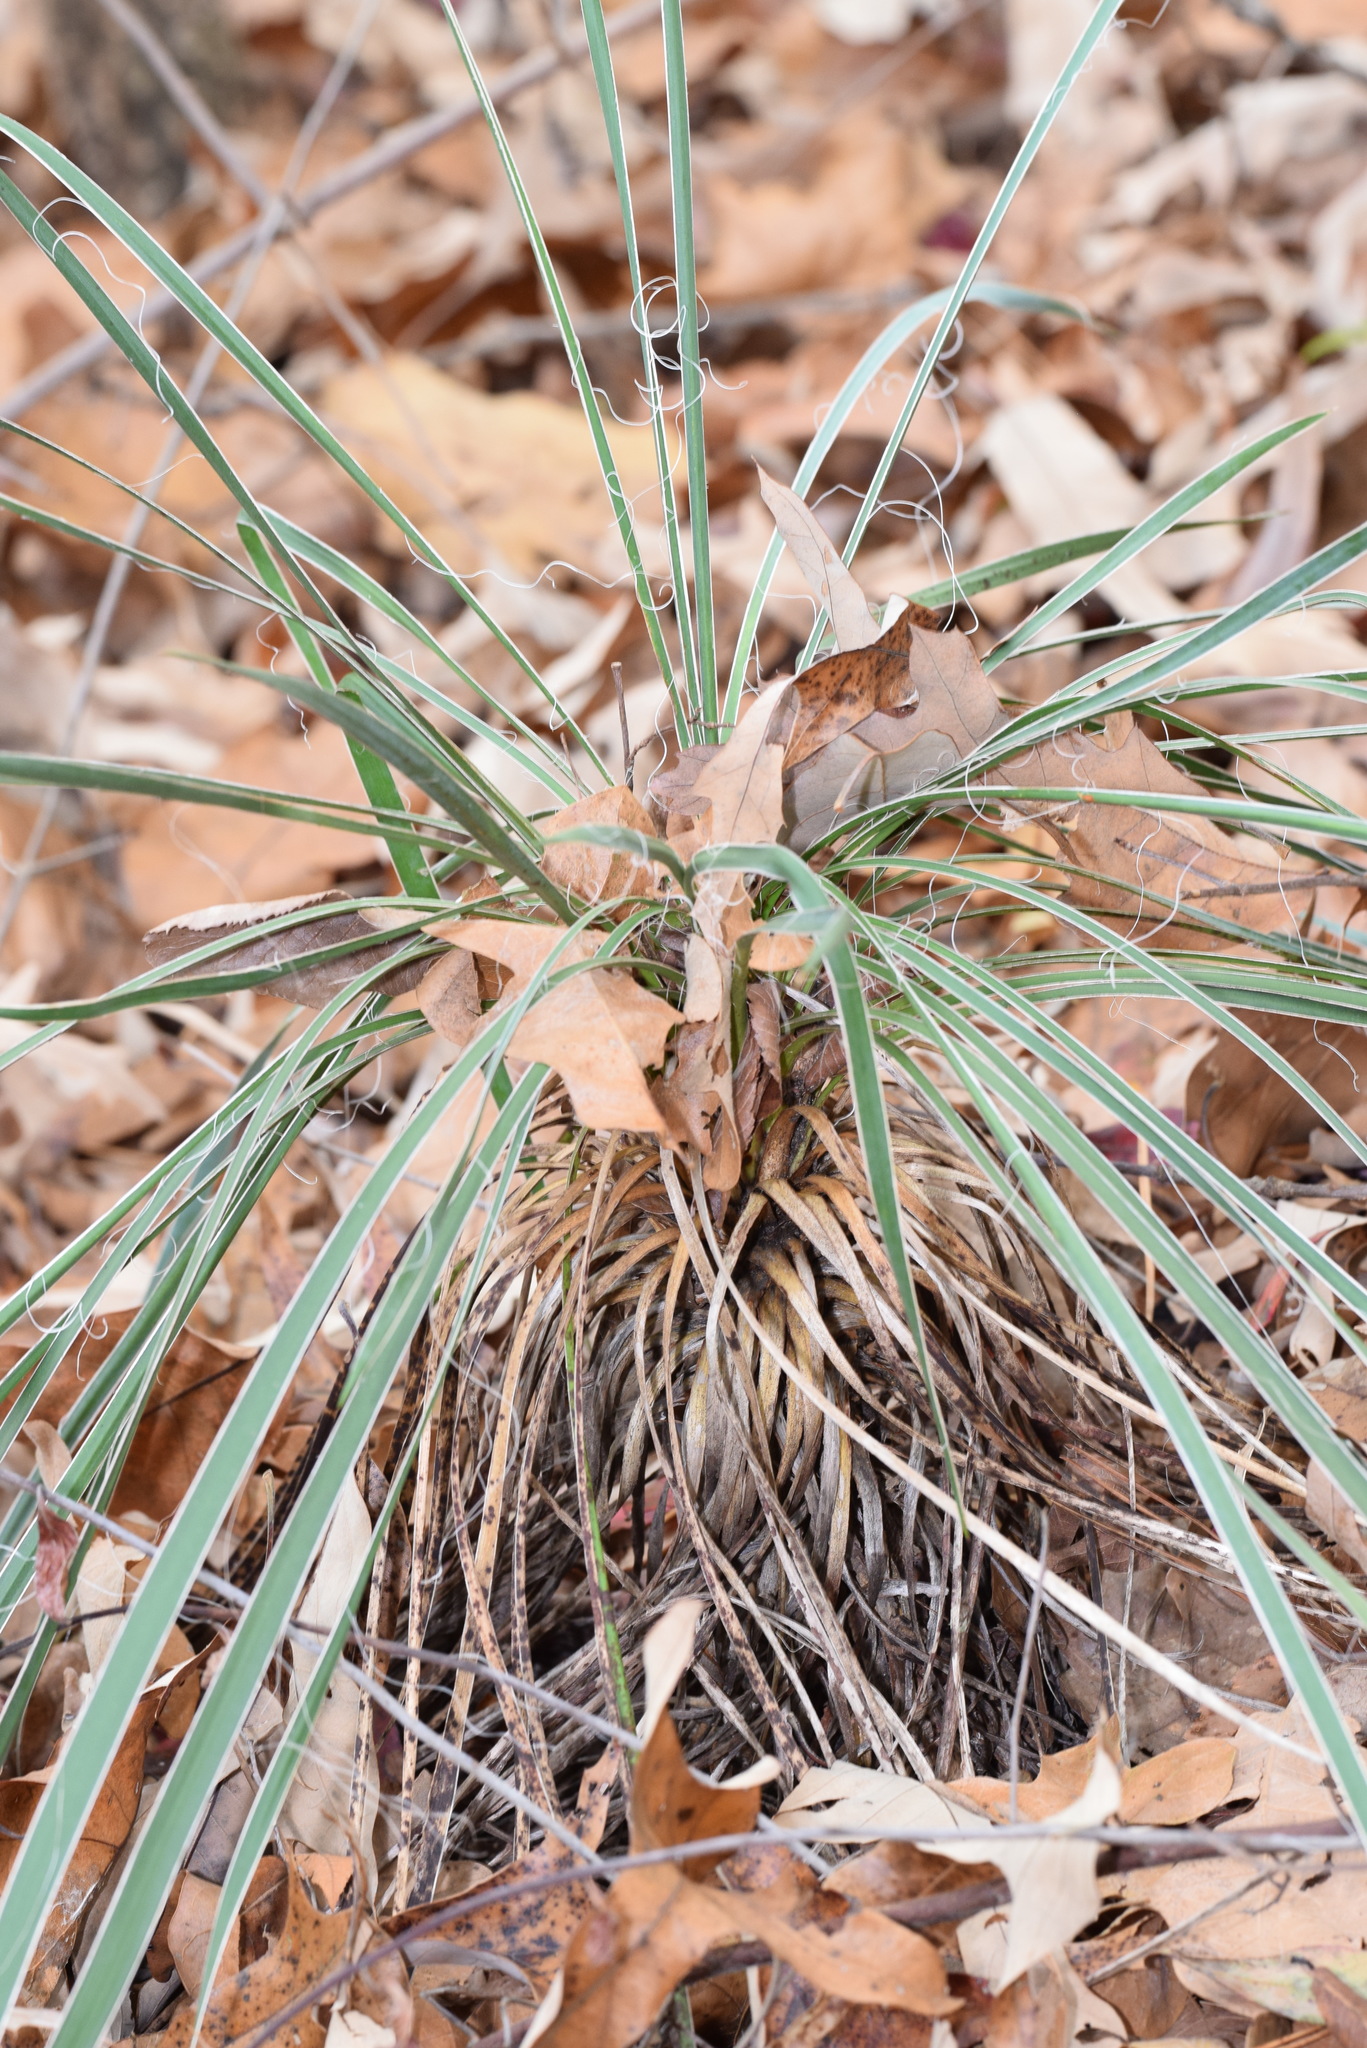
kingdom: Plantae
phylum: Tracheophyta
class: Liliopsida
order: Asparagales
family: Asparagaceae
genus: Yucca
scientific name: Yucca flaccida
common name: Adam's-needle
